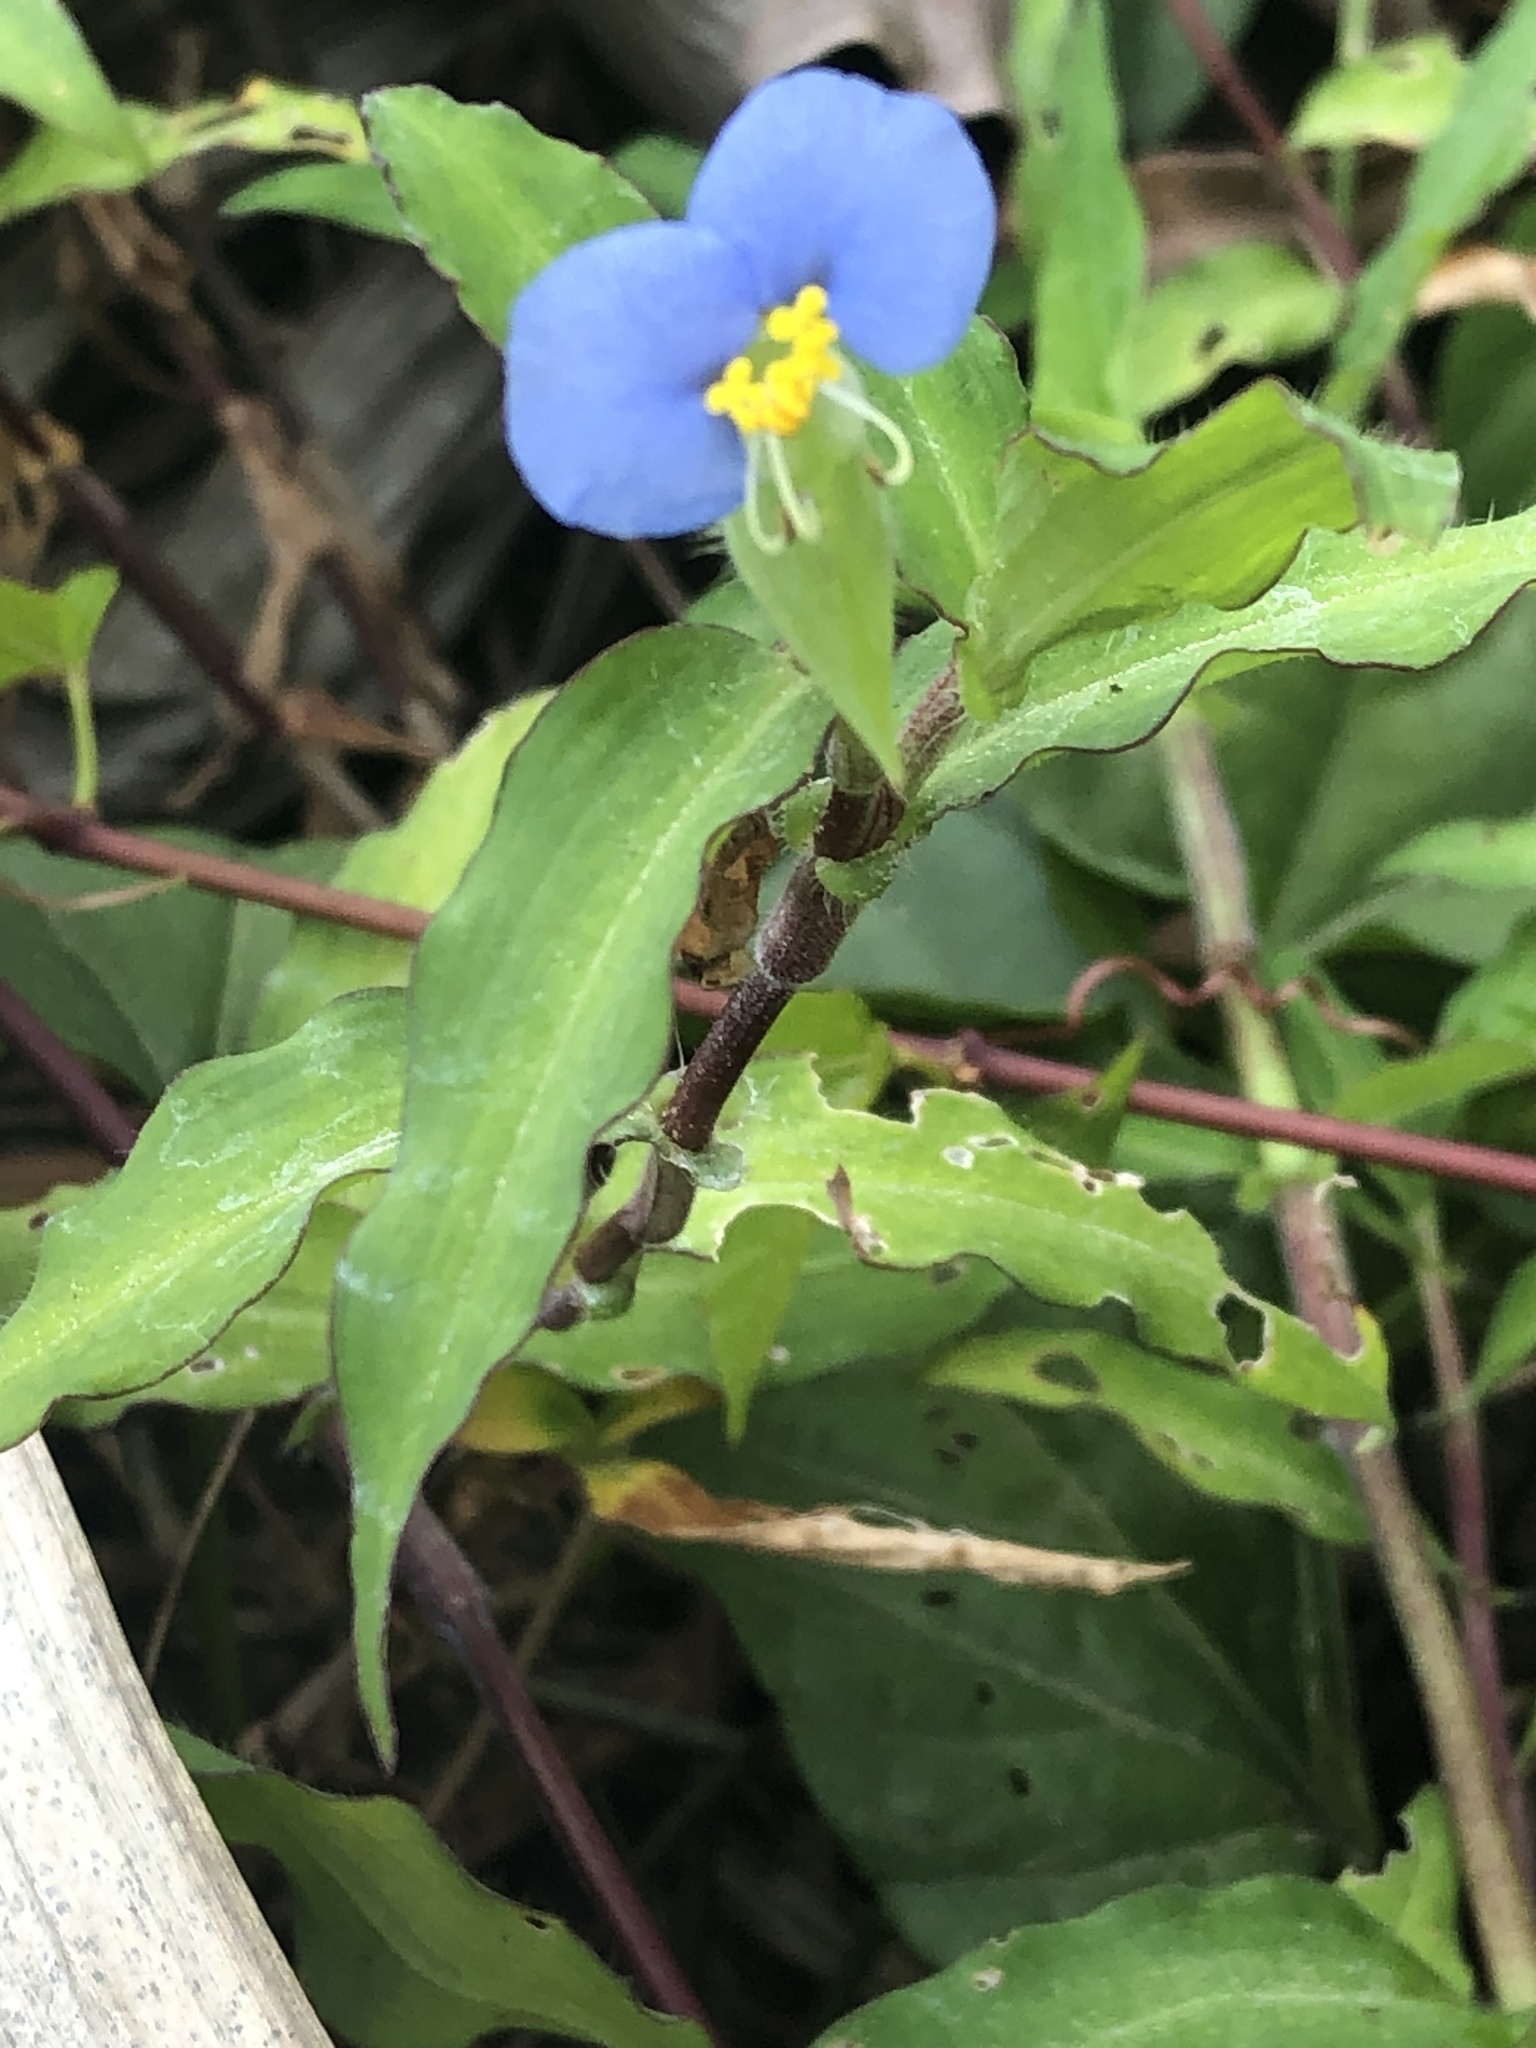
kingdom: Plantae
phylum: Tracheophyta
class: Liliopsida
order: Commelinales
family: Commelinaceae
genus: Commelina
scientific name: Commelina erecta
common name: Blousel blommetjie
